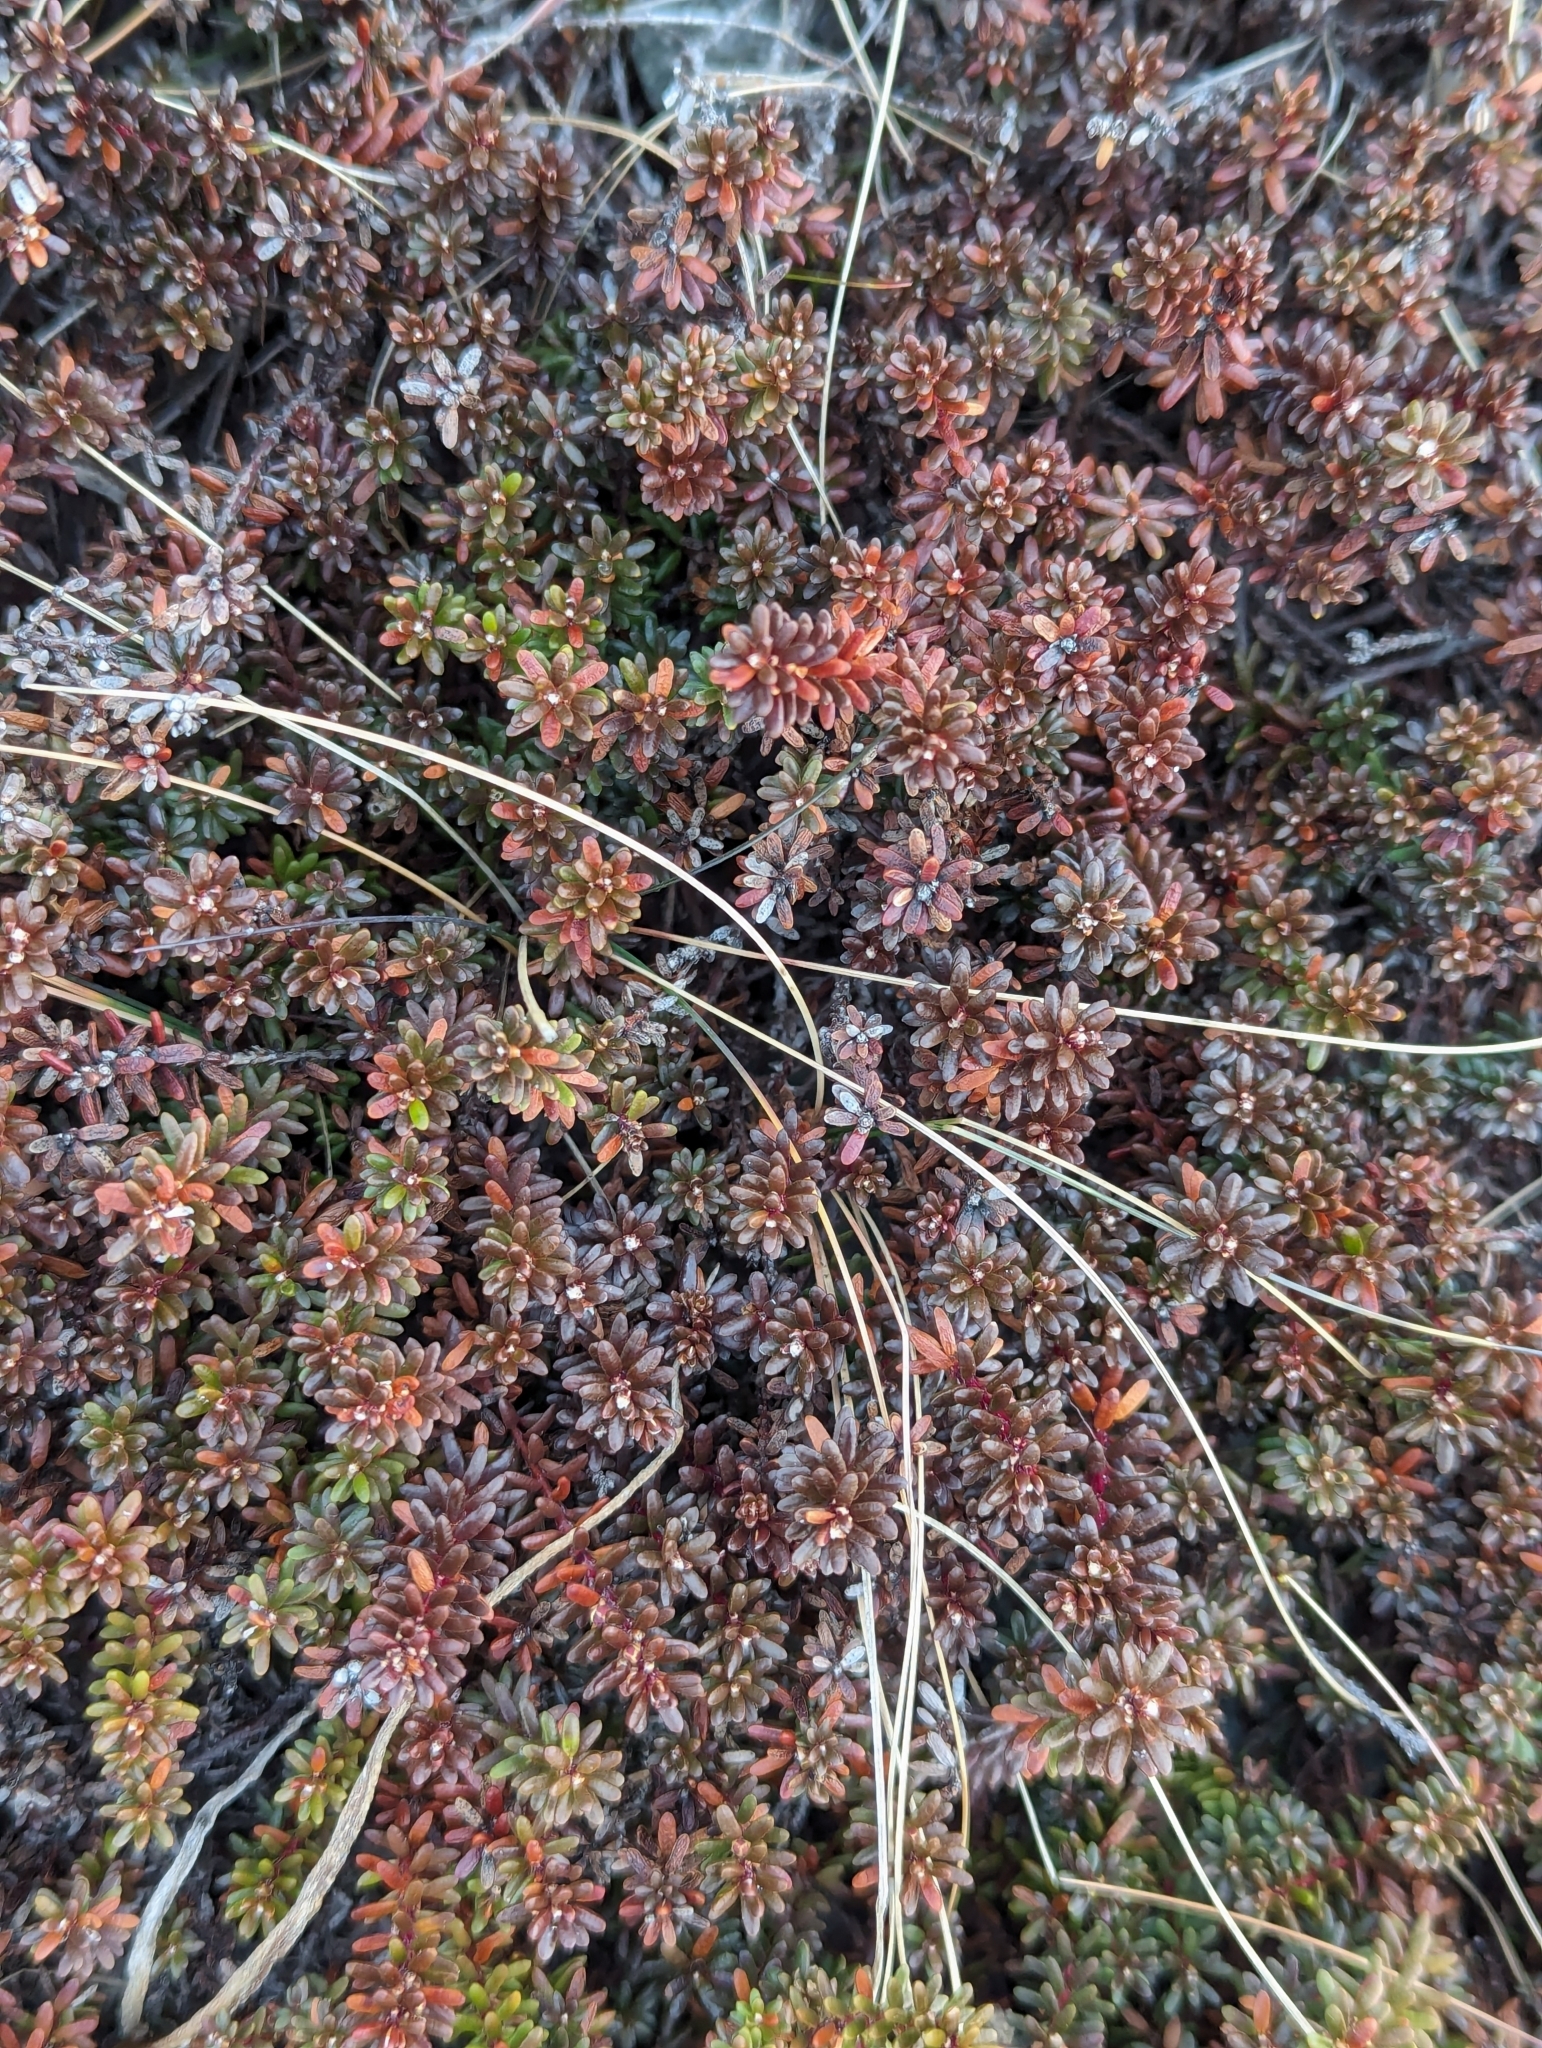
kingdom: Plantae
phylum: Tracheophyta
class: Magnoliopsida
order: Ericales
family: Ericaceae
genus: Empetrum
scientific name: Empetrum nigrum
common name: Black crowberry
